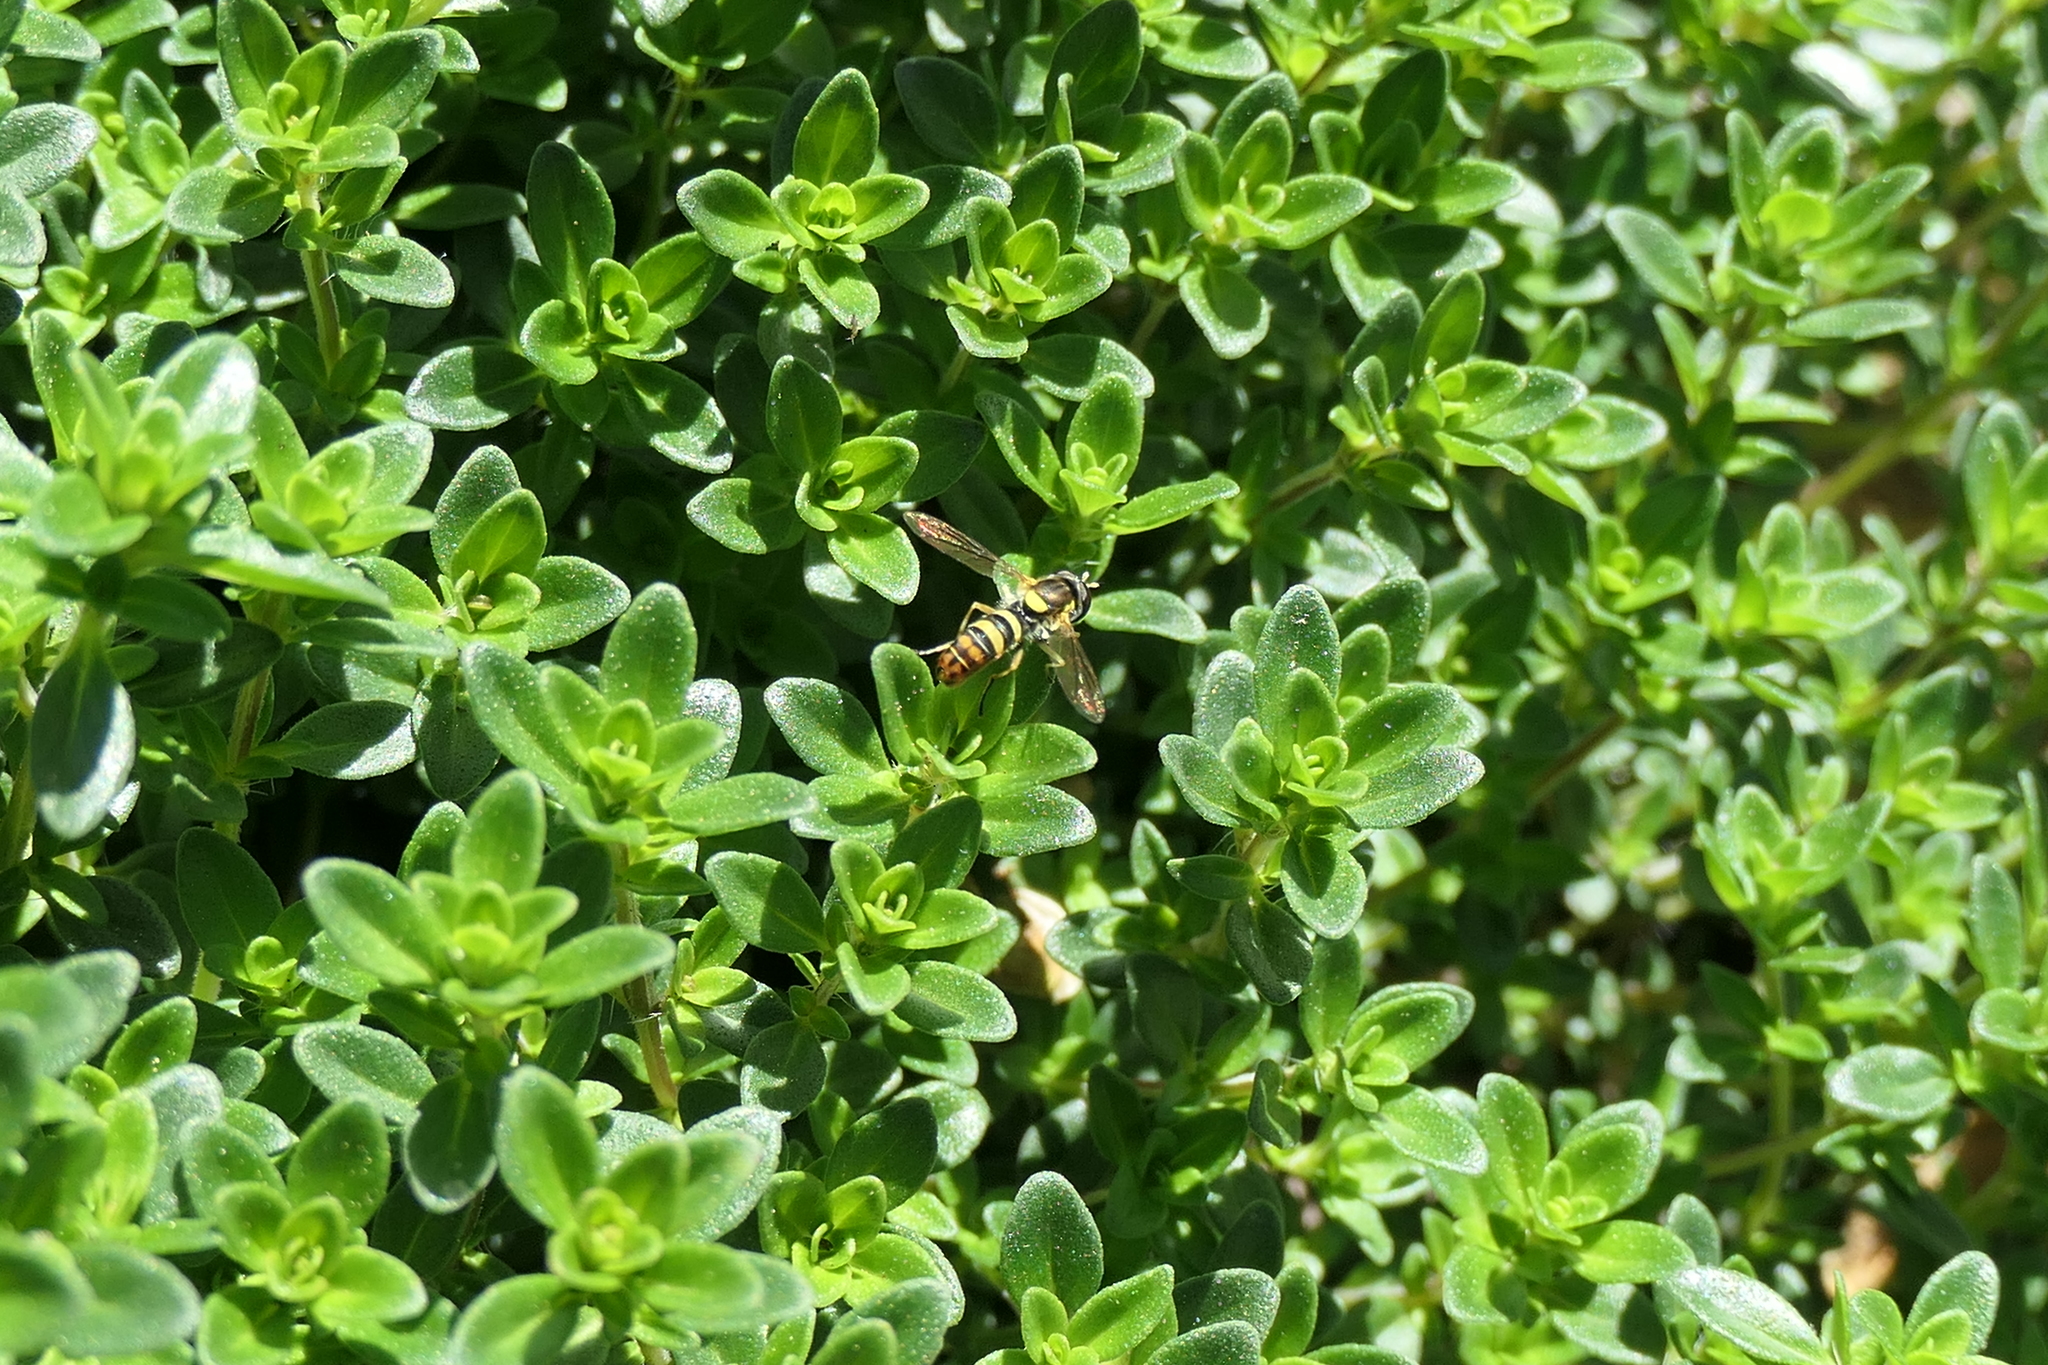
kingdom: Animalia
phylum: Arthropoda
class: Insecta
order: Diptera
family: Syrphidae
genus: Sphaerophoria
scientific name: Sphaerophoria sulphuripes
